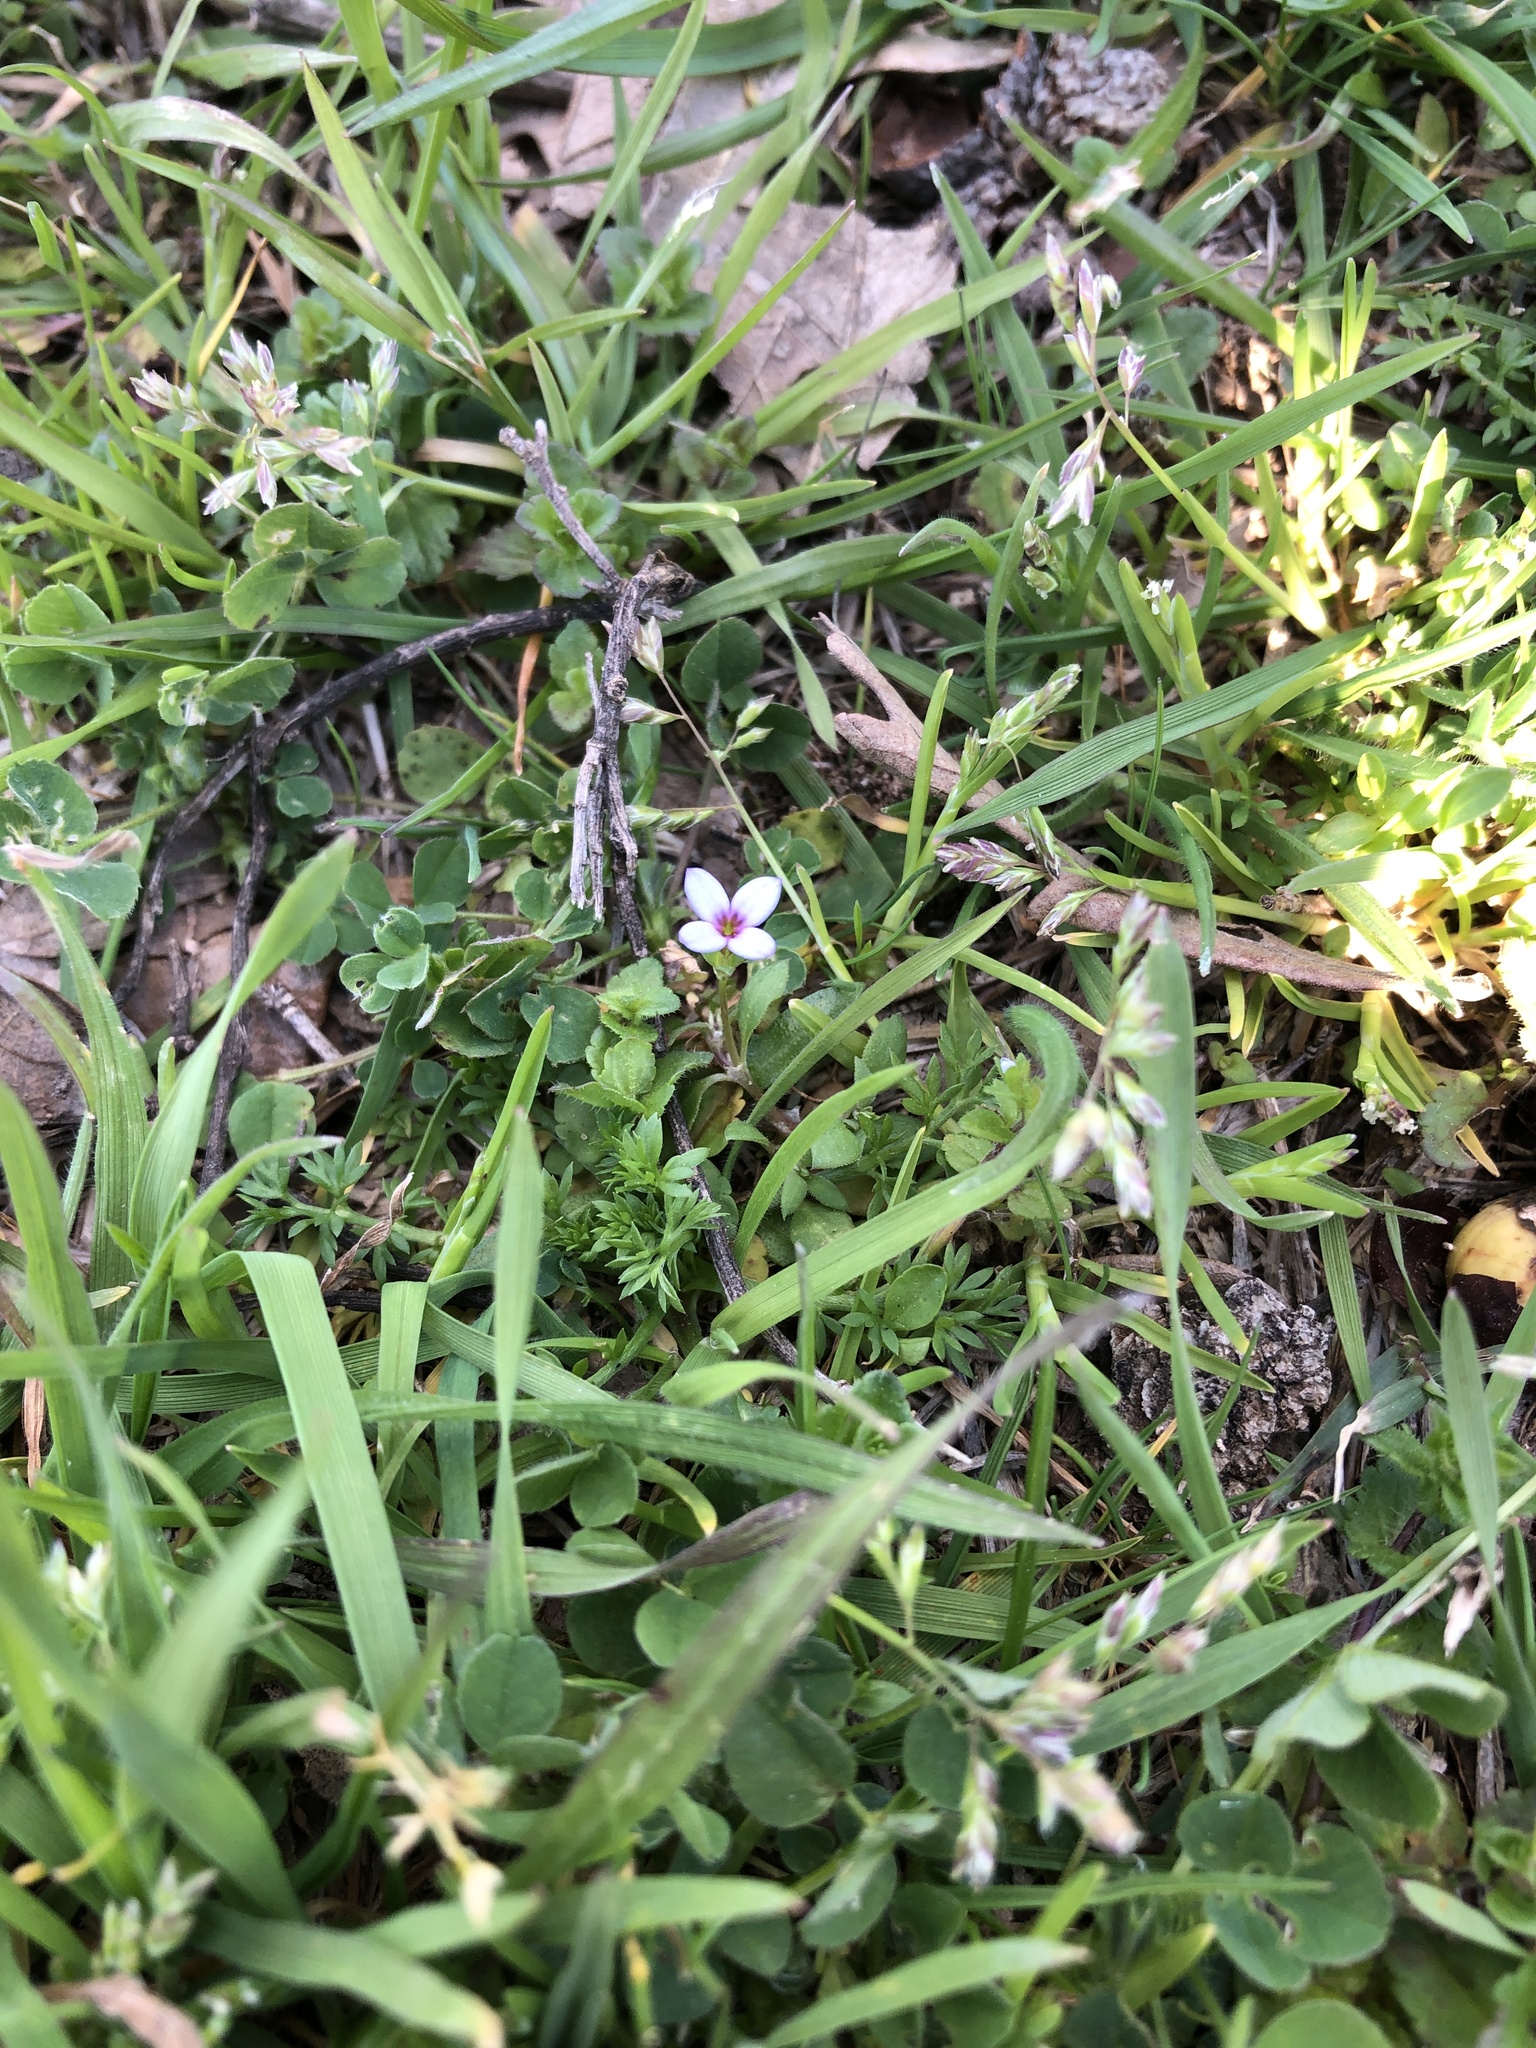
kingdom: Plantae
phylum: Tracheophyta
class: Magnoliopsida
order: Gentianales
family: Rubiaceae
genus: Houstonia
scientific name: Houstonia pusilla
